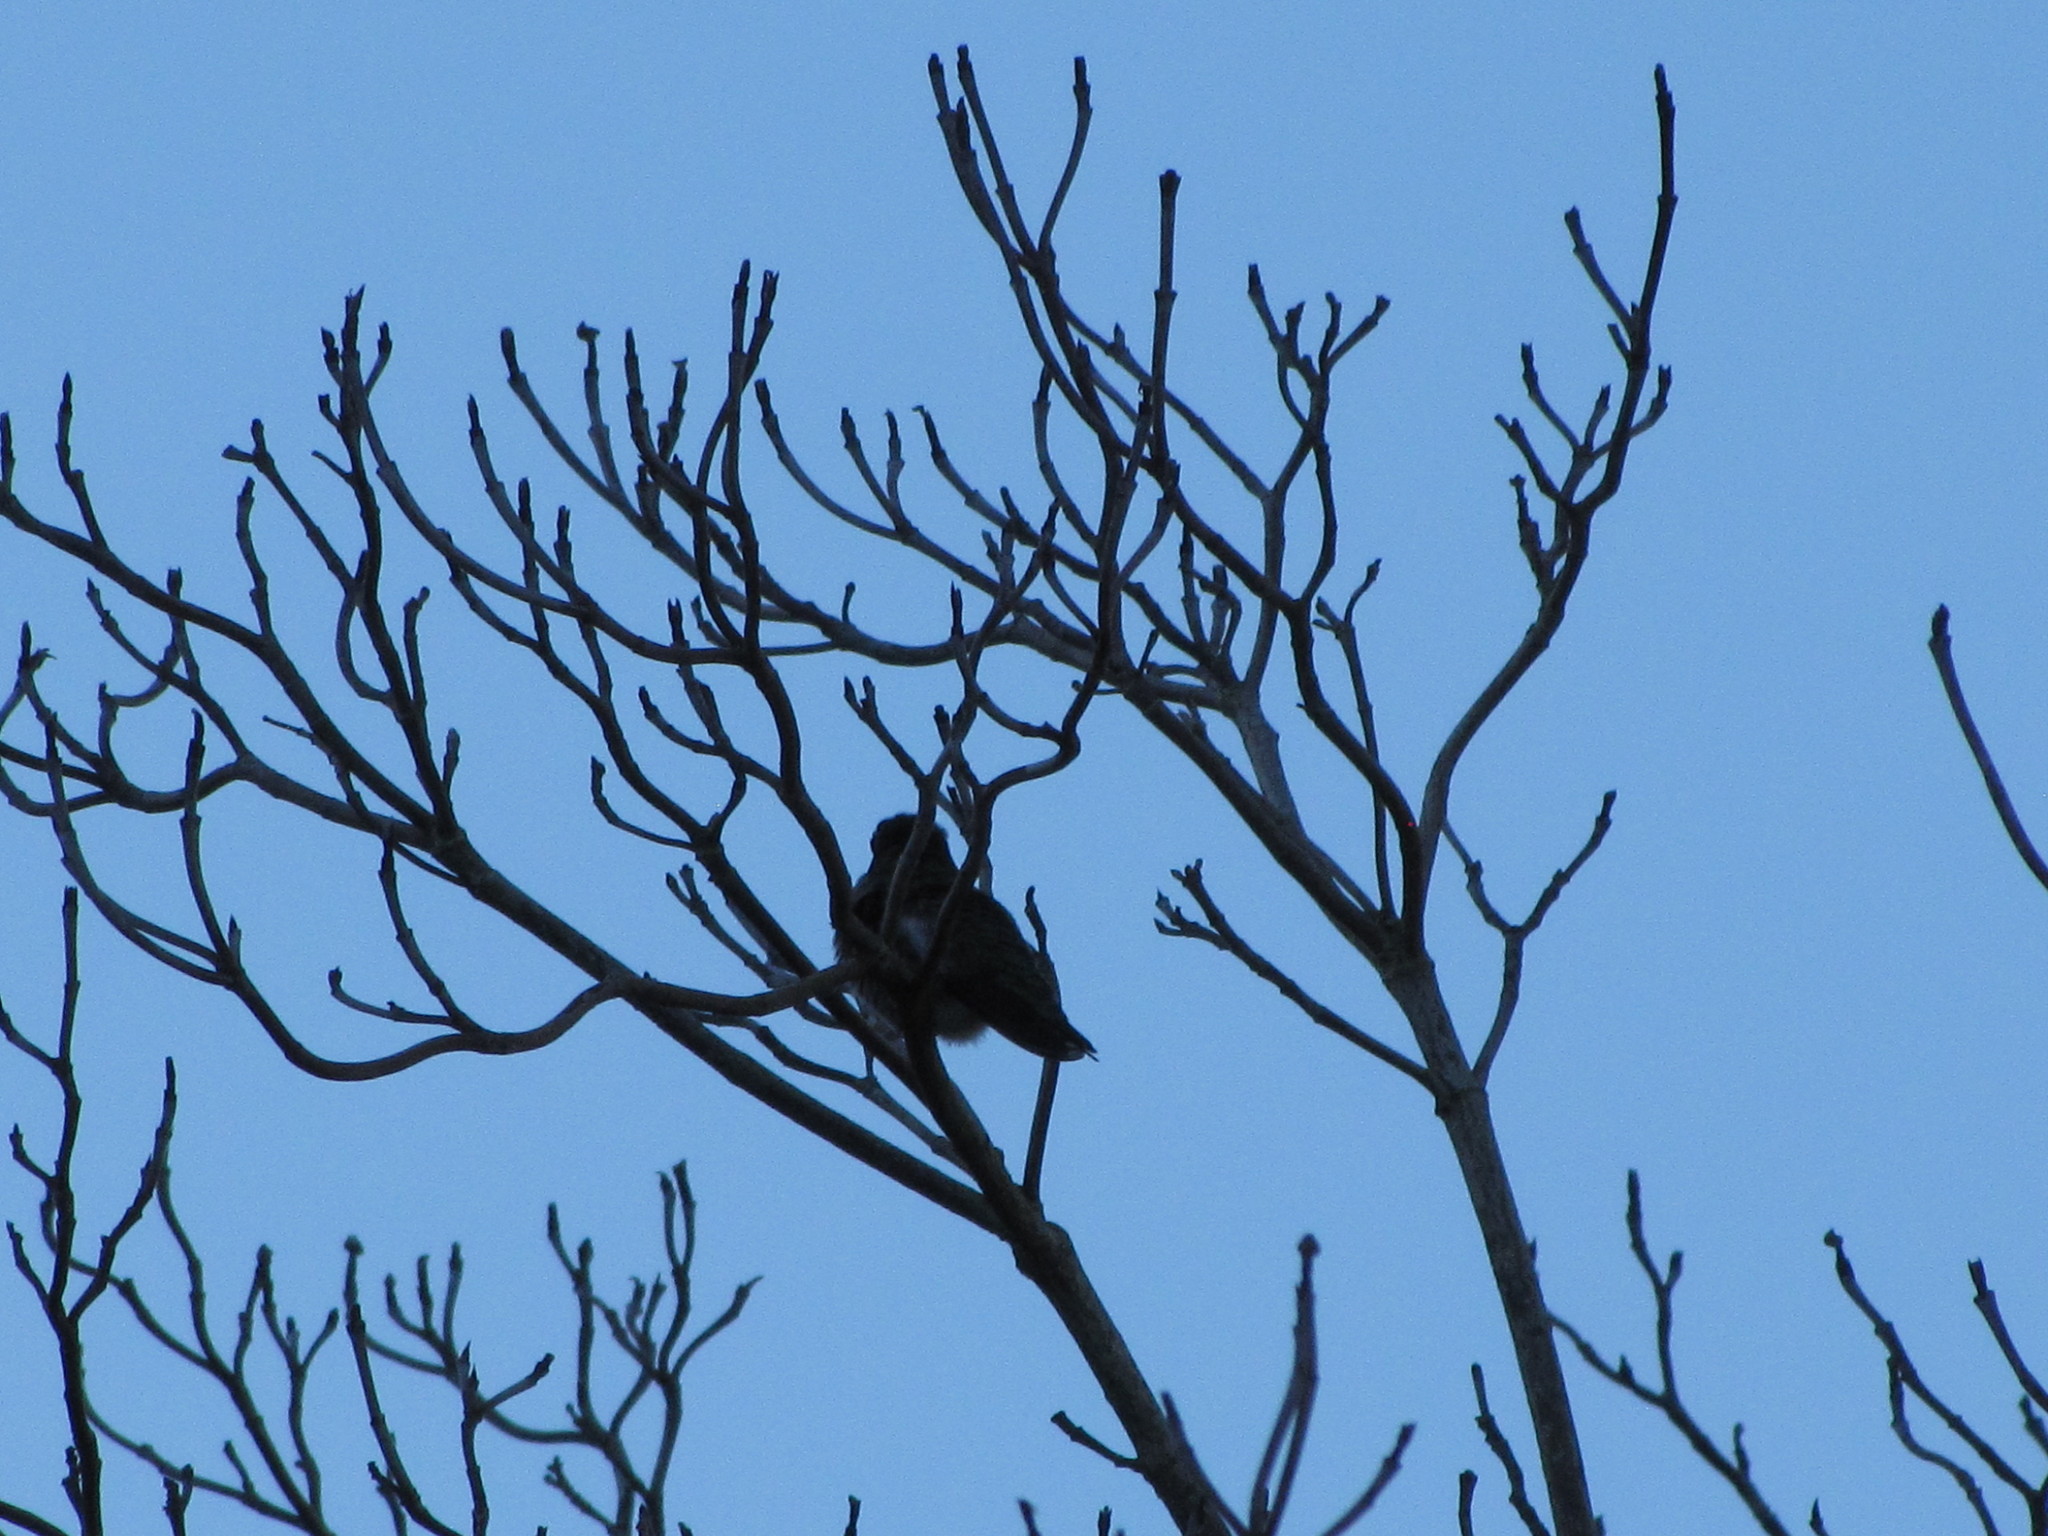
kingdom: Animalia
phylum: Chordata
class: Aves
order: Apodiformes
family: Trochilidae
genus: Calypte
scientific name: Calypte anna
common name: Anna's hummingbird
